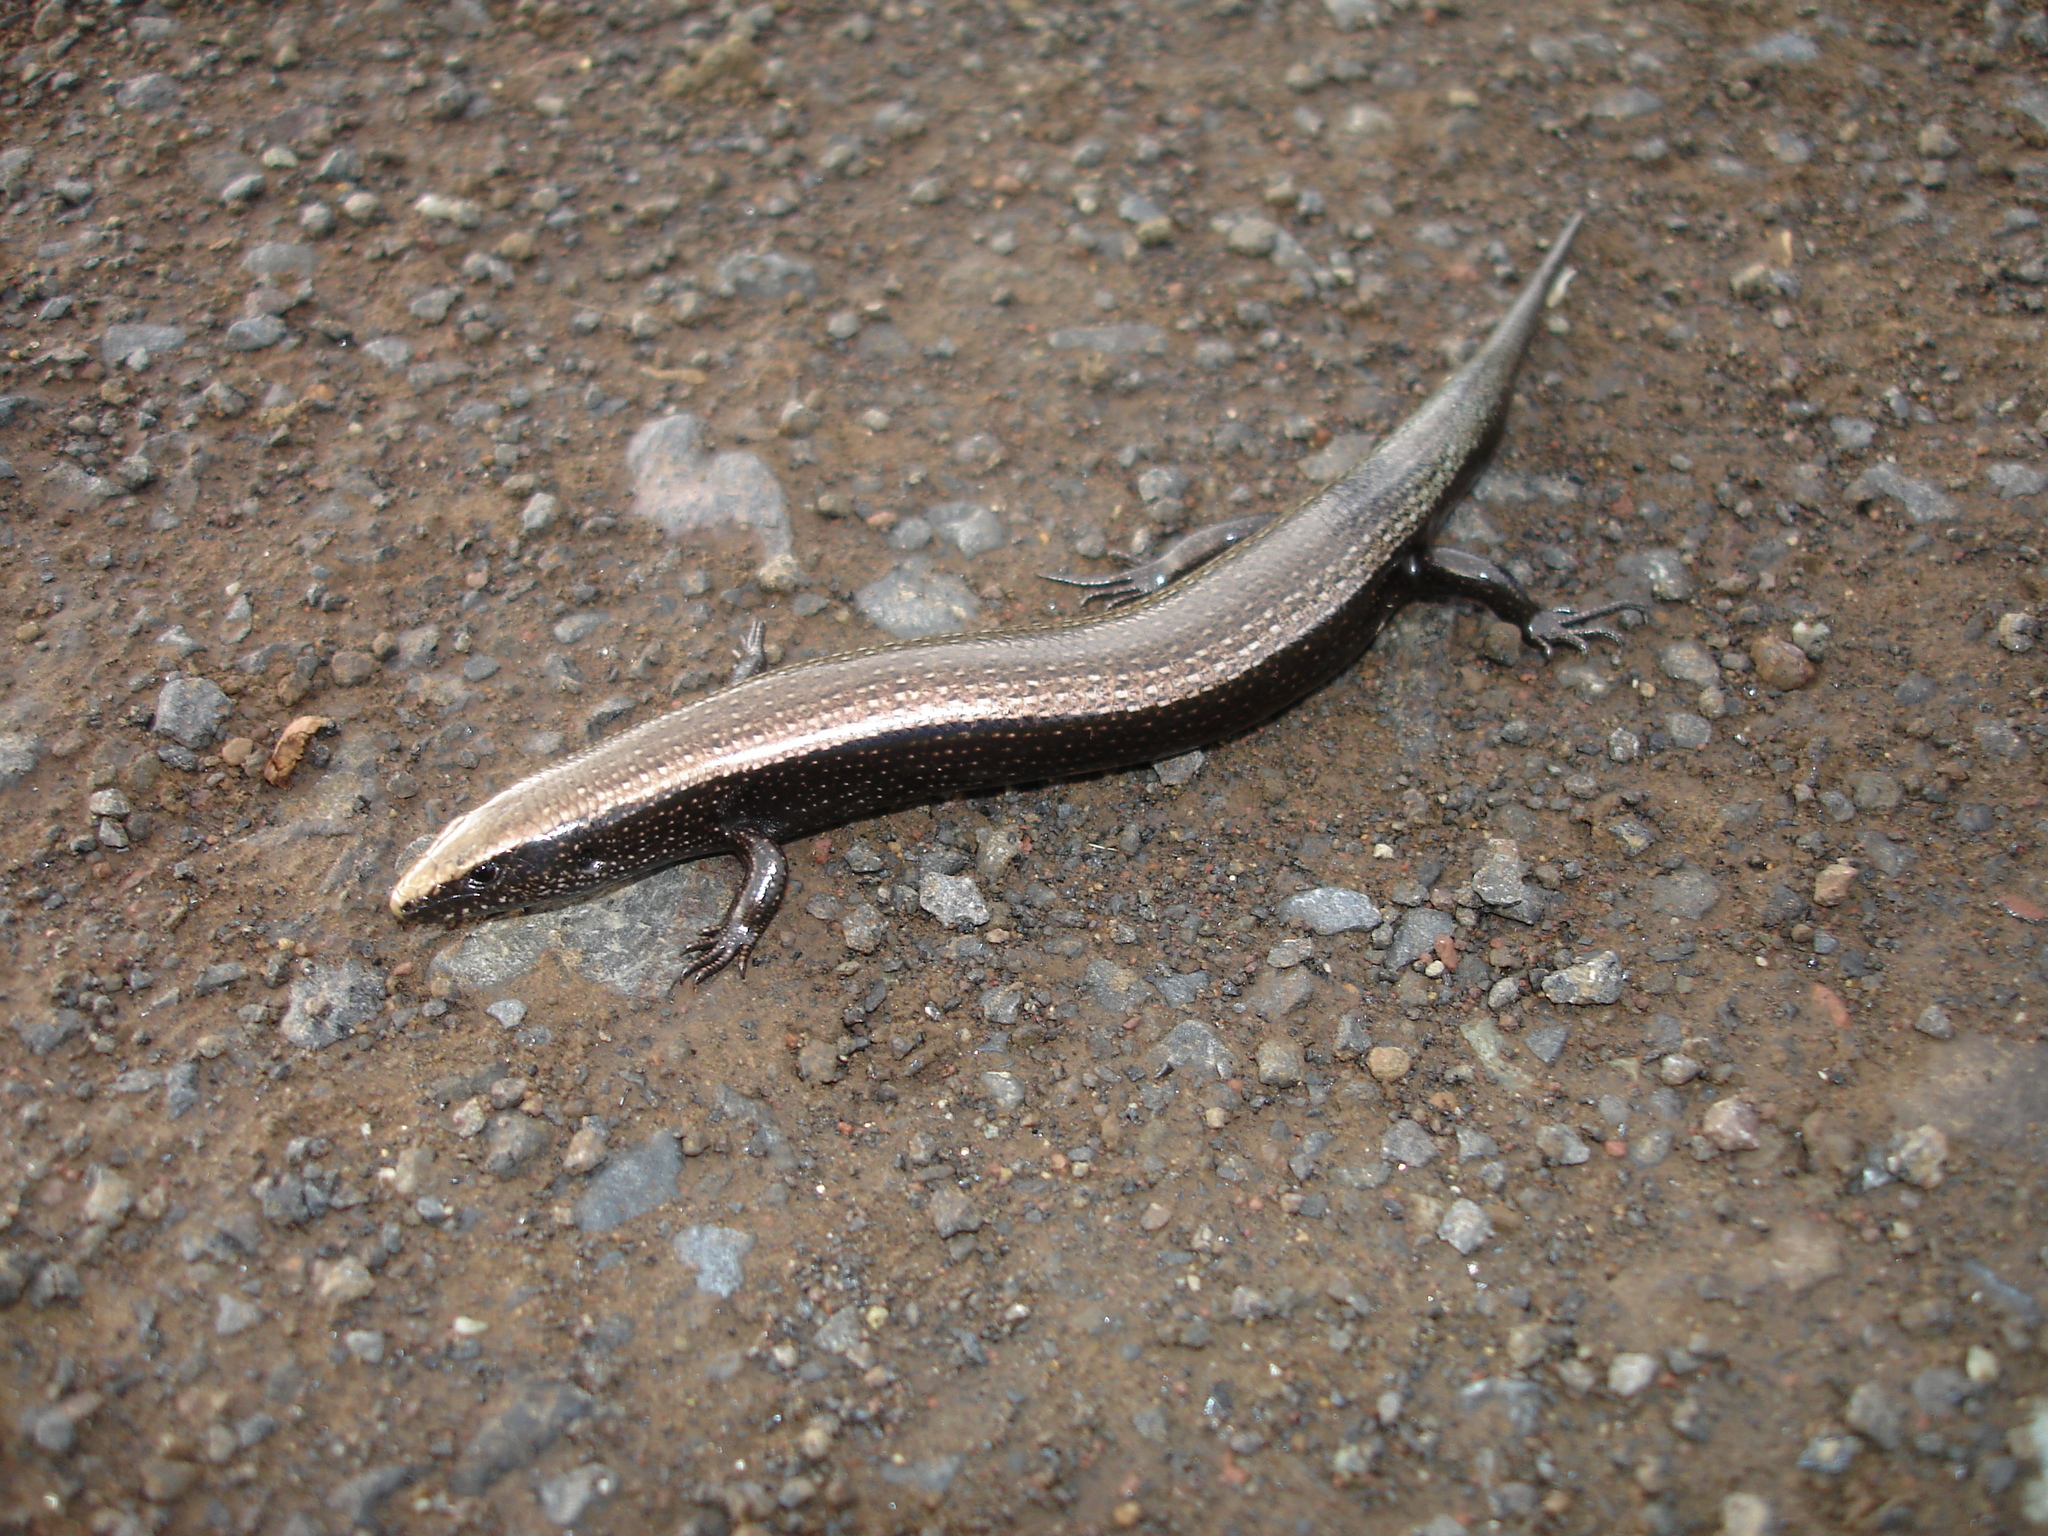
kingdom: Animalia
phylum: Chordata
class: Squamata
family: Scincidae
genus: Chalcides
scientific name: Chalcides viridanus
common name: Canaryan cylindrical skink
